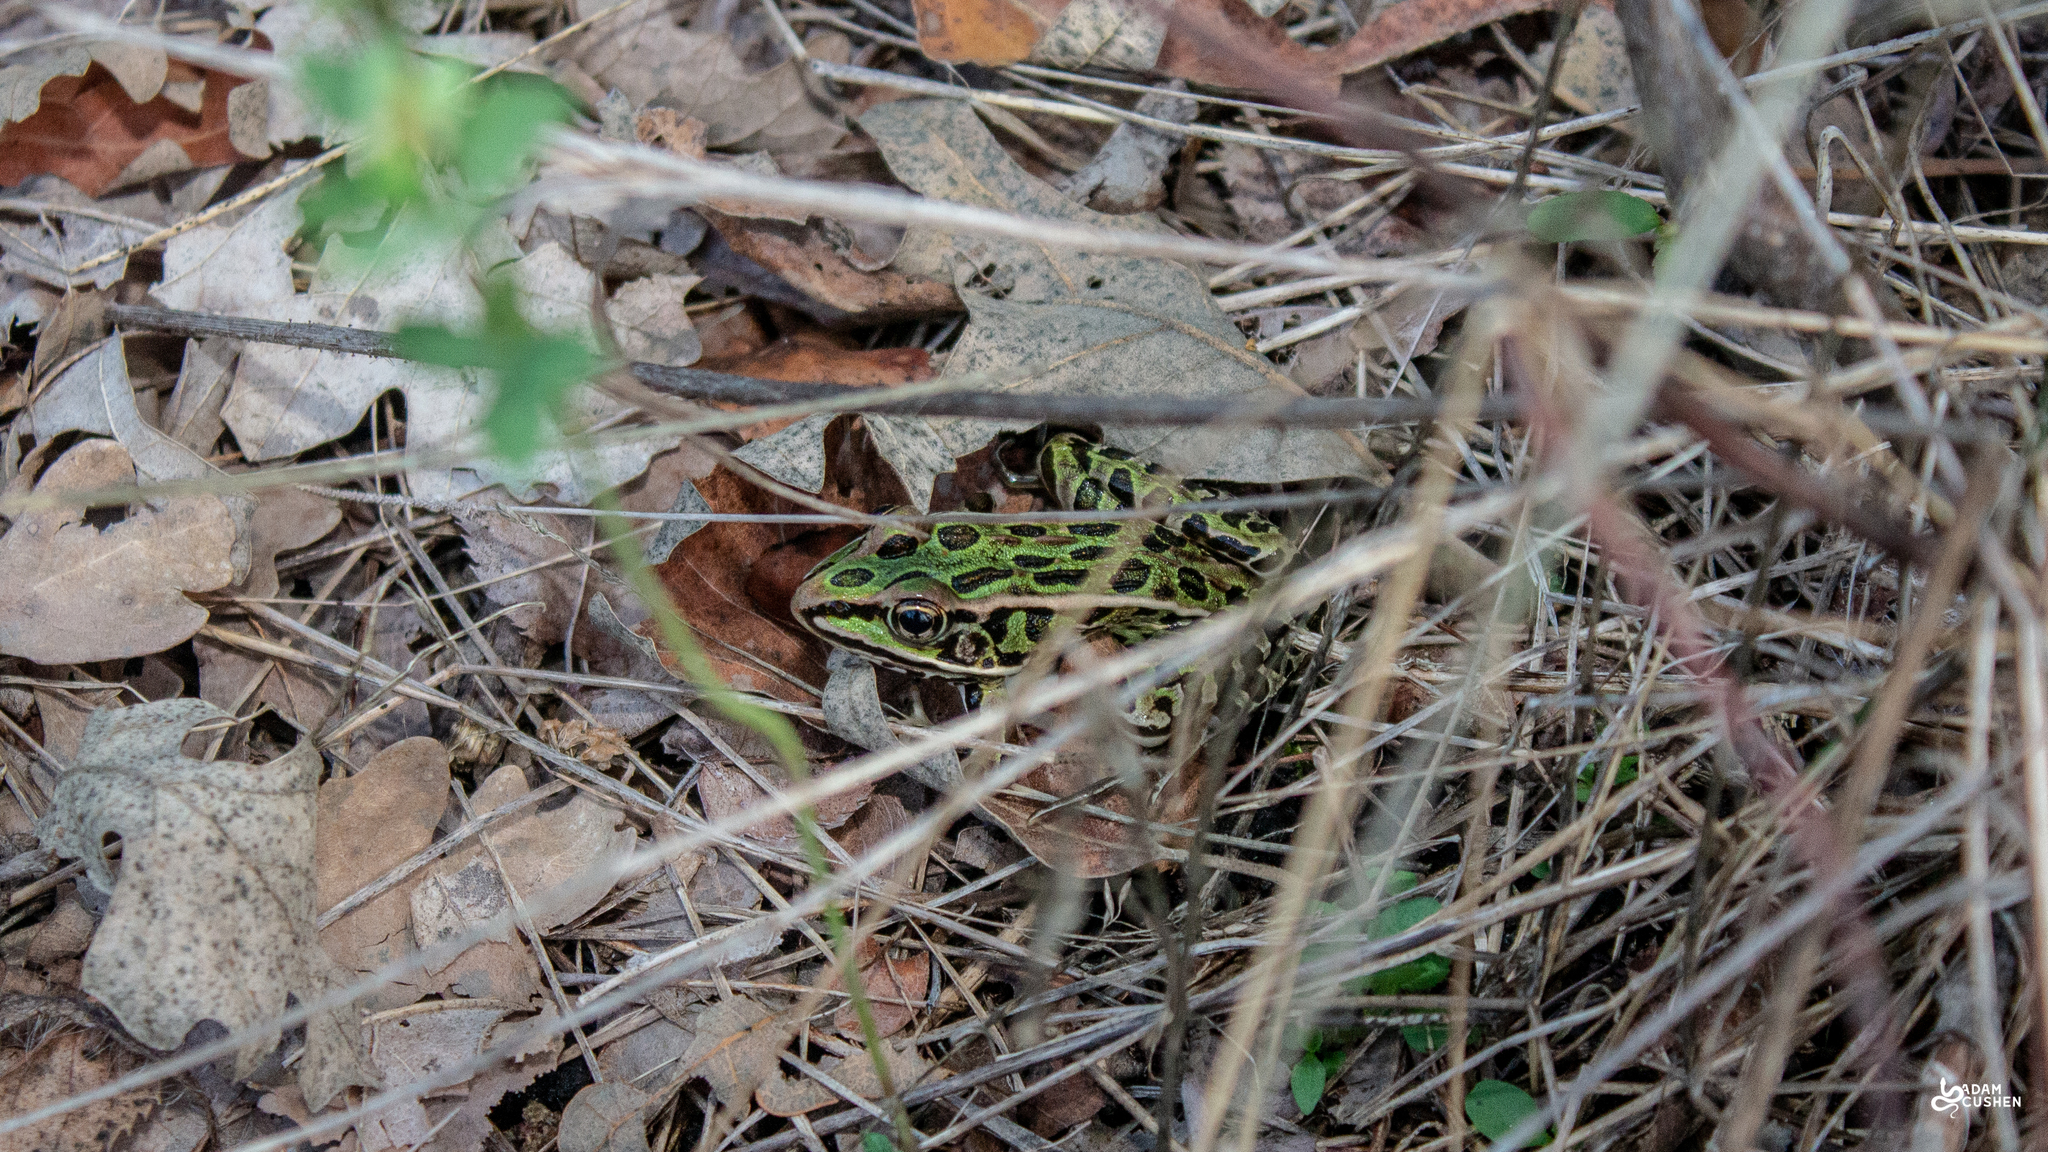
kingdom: Animalia
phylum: Chordata
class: Amphibia
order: Anura
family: Ranidae
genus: Lithobates
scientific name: Lithobates pipiens
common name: Northern leopard frog
